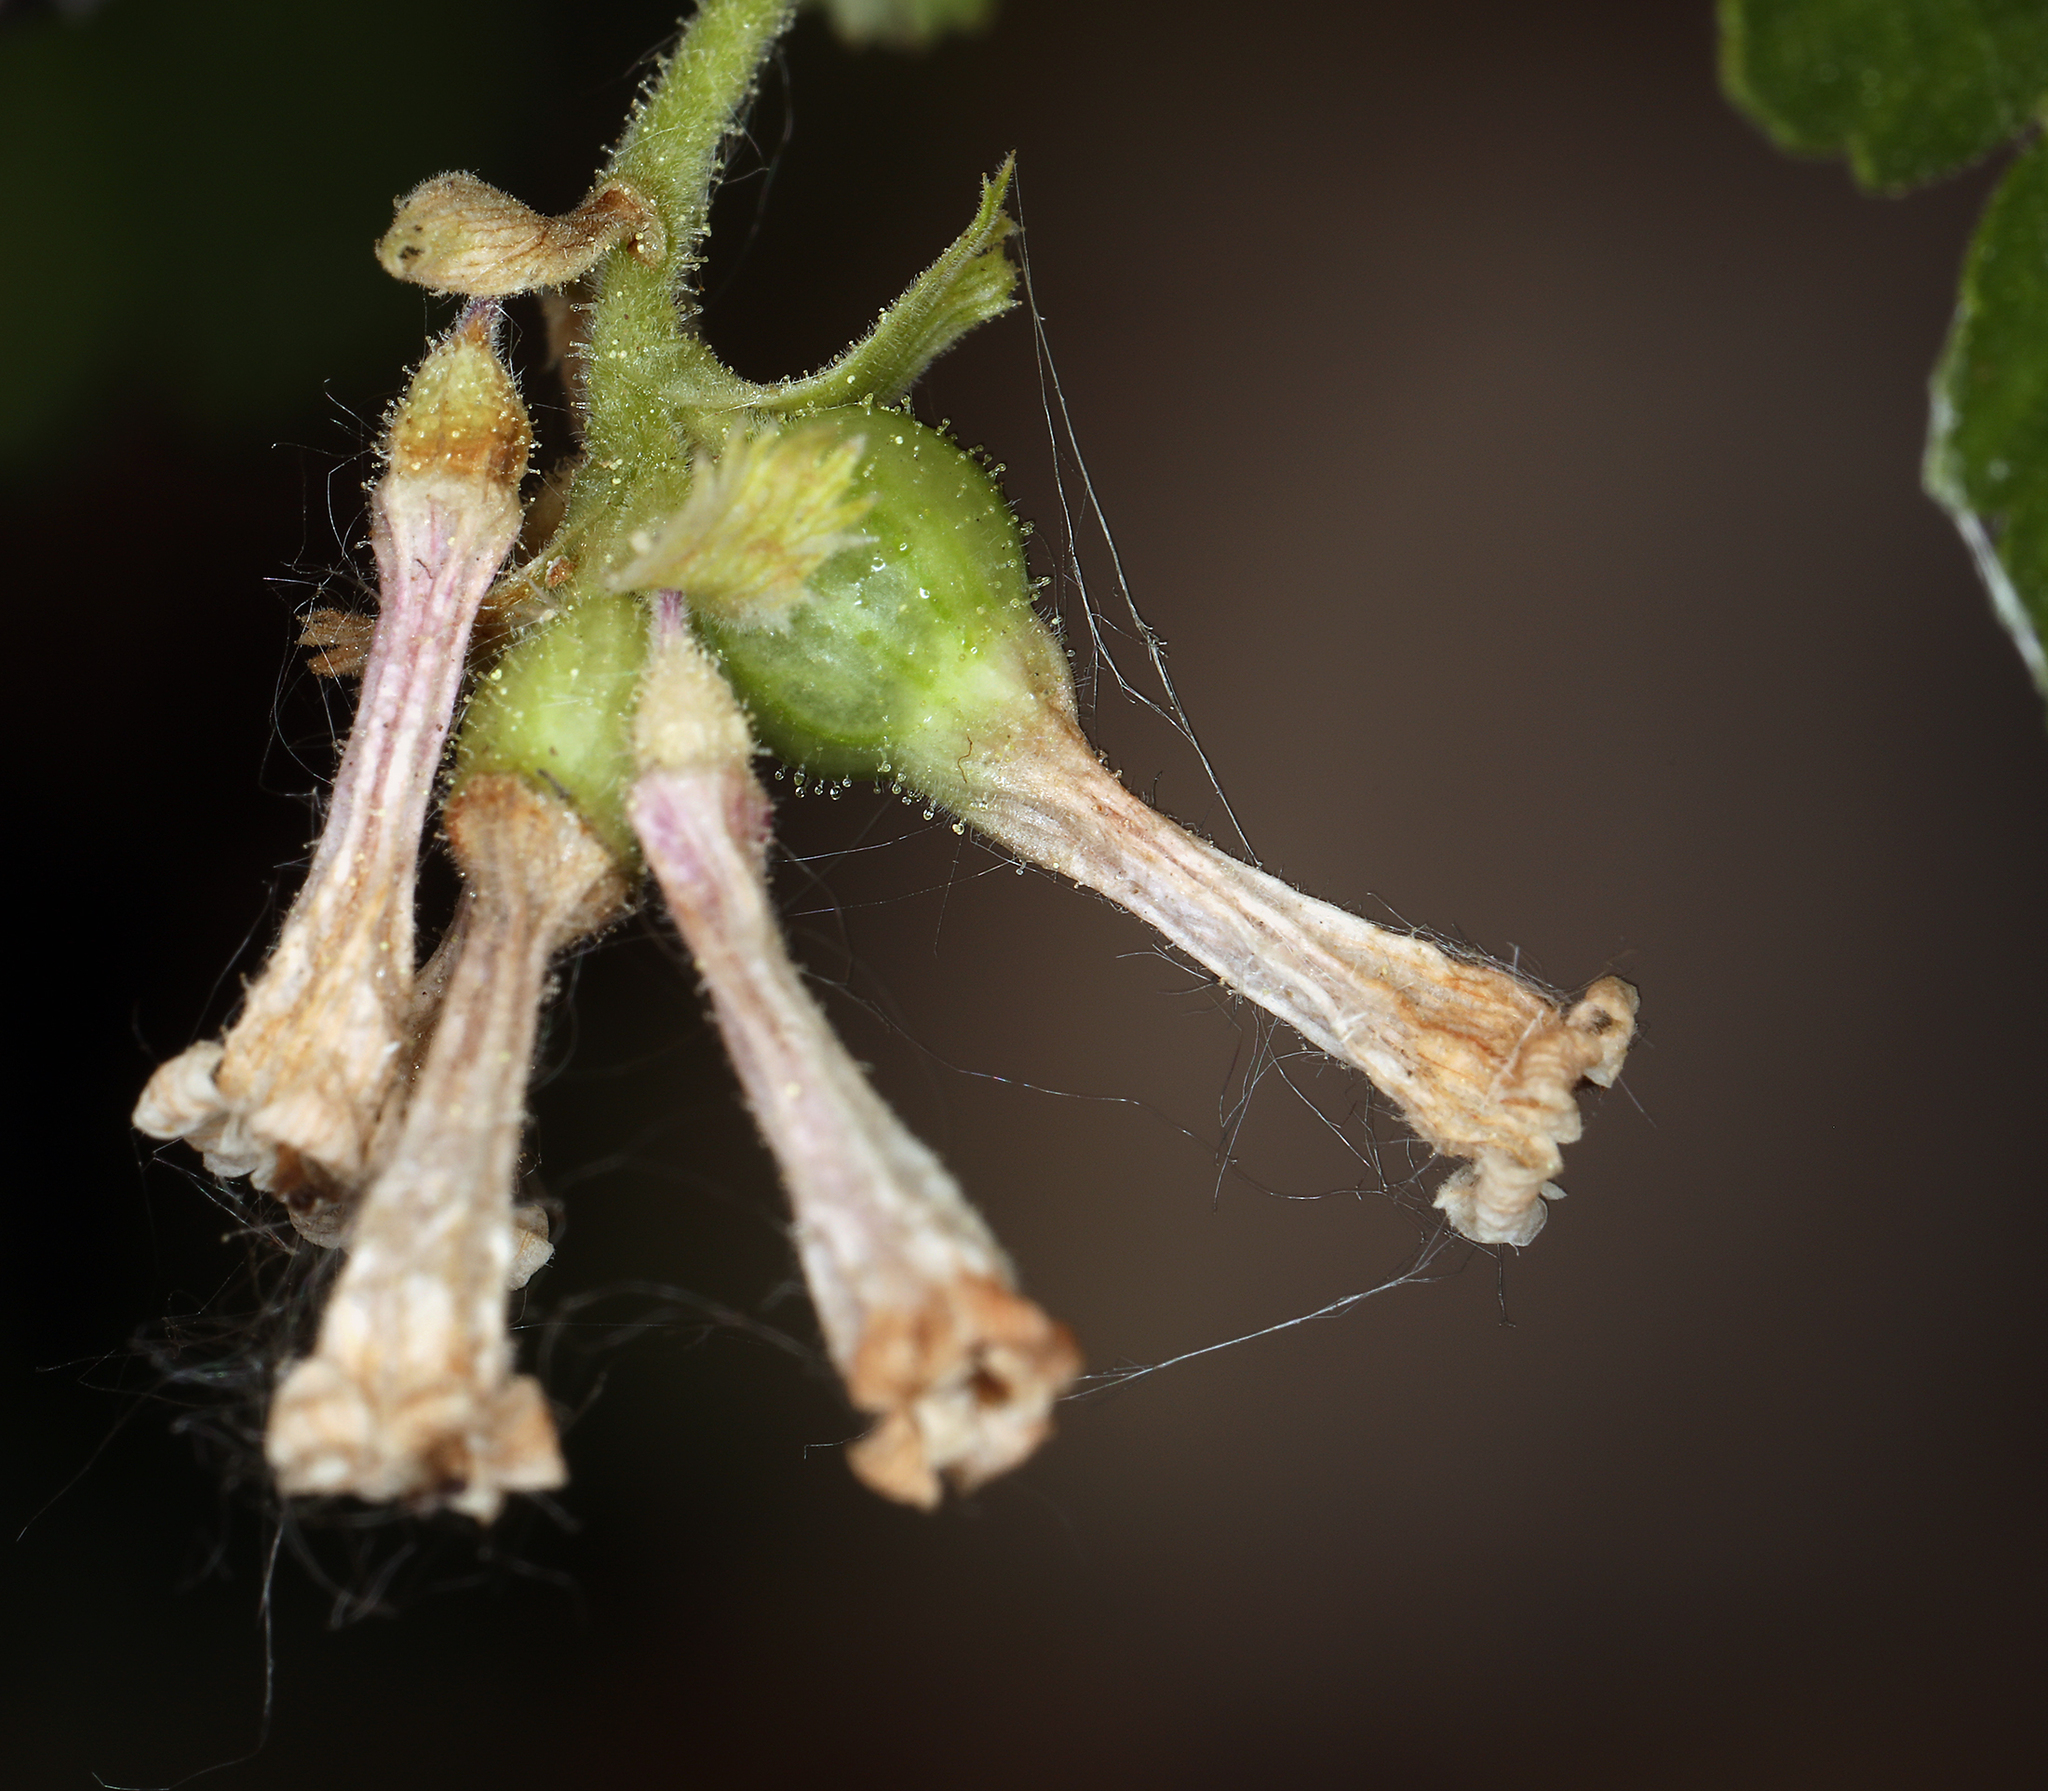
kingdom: Plantae
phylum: Tracheophyta
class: Magnoliopsida
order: Saxifragales
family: Grossulariaceae
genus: Ribes
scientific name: Ribes cereum
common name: Wax currant
